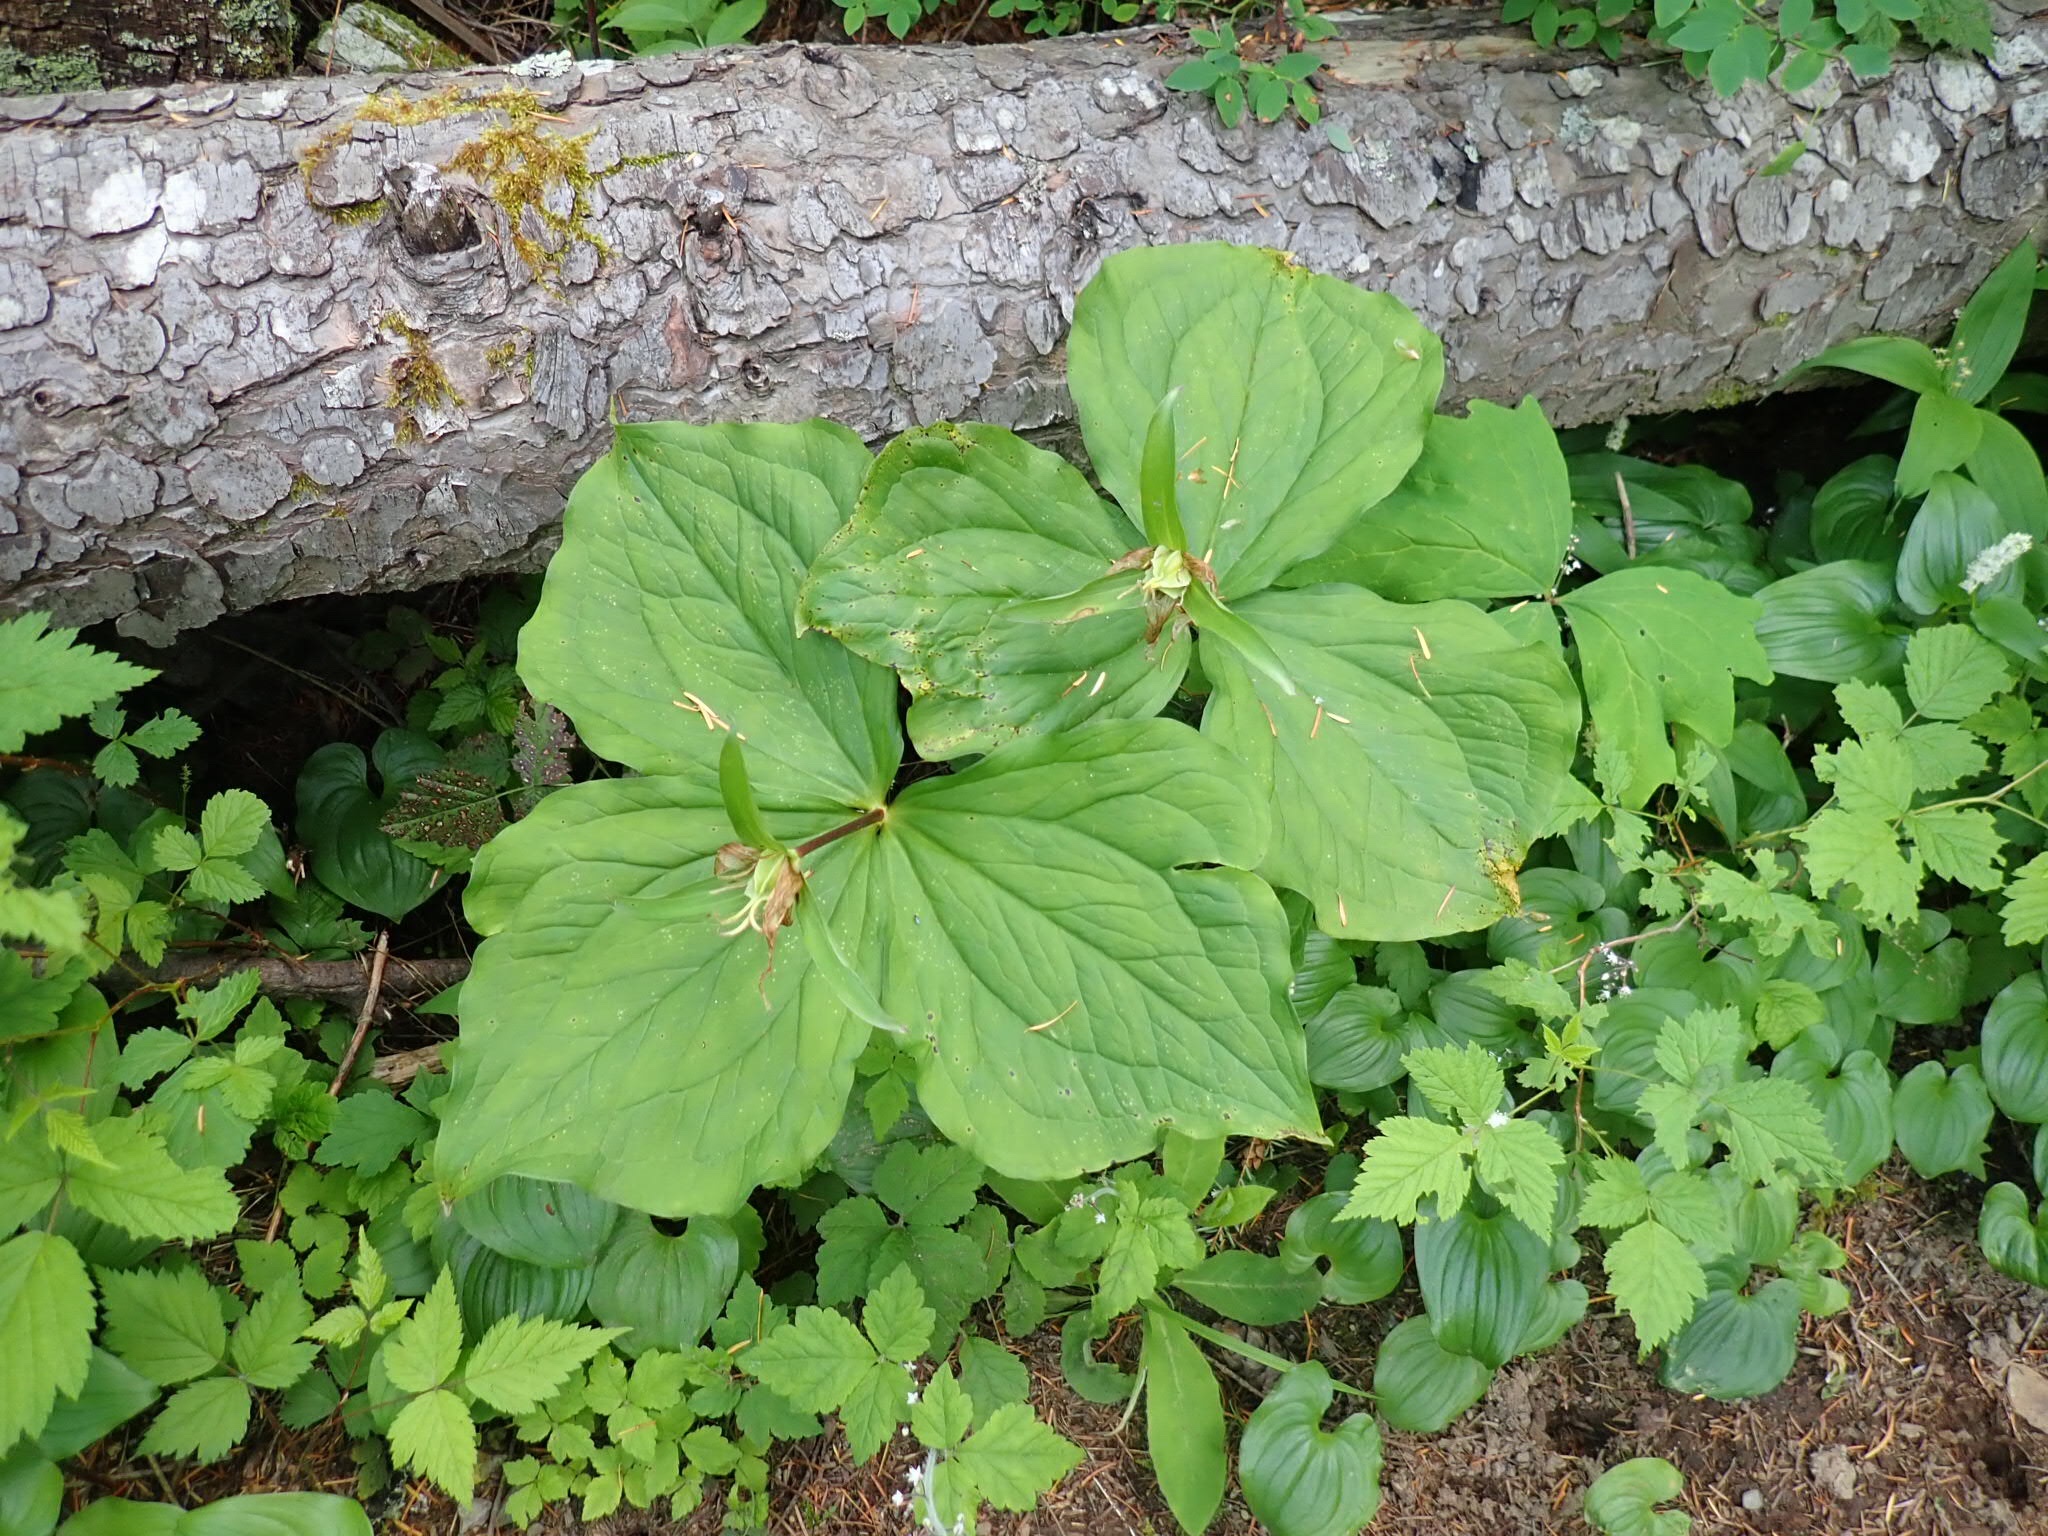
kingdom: Plantae
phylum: Tracheophyta
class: Liliopsida
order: Liliales
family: Melanthiaceae
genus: Trillium
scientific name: Trillium ovatum
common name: Pacific trillium
